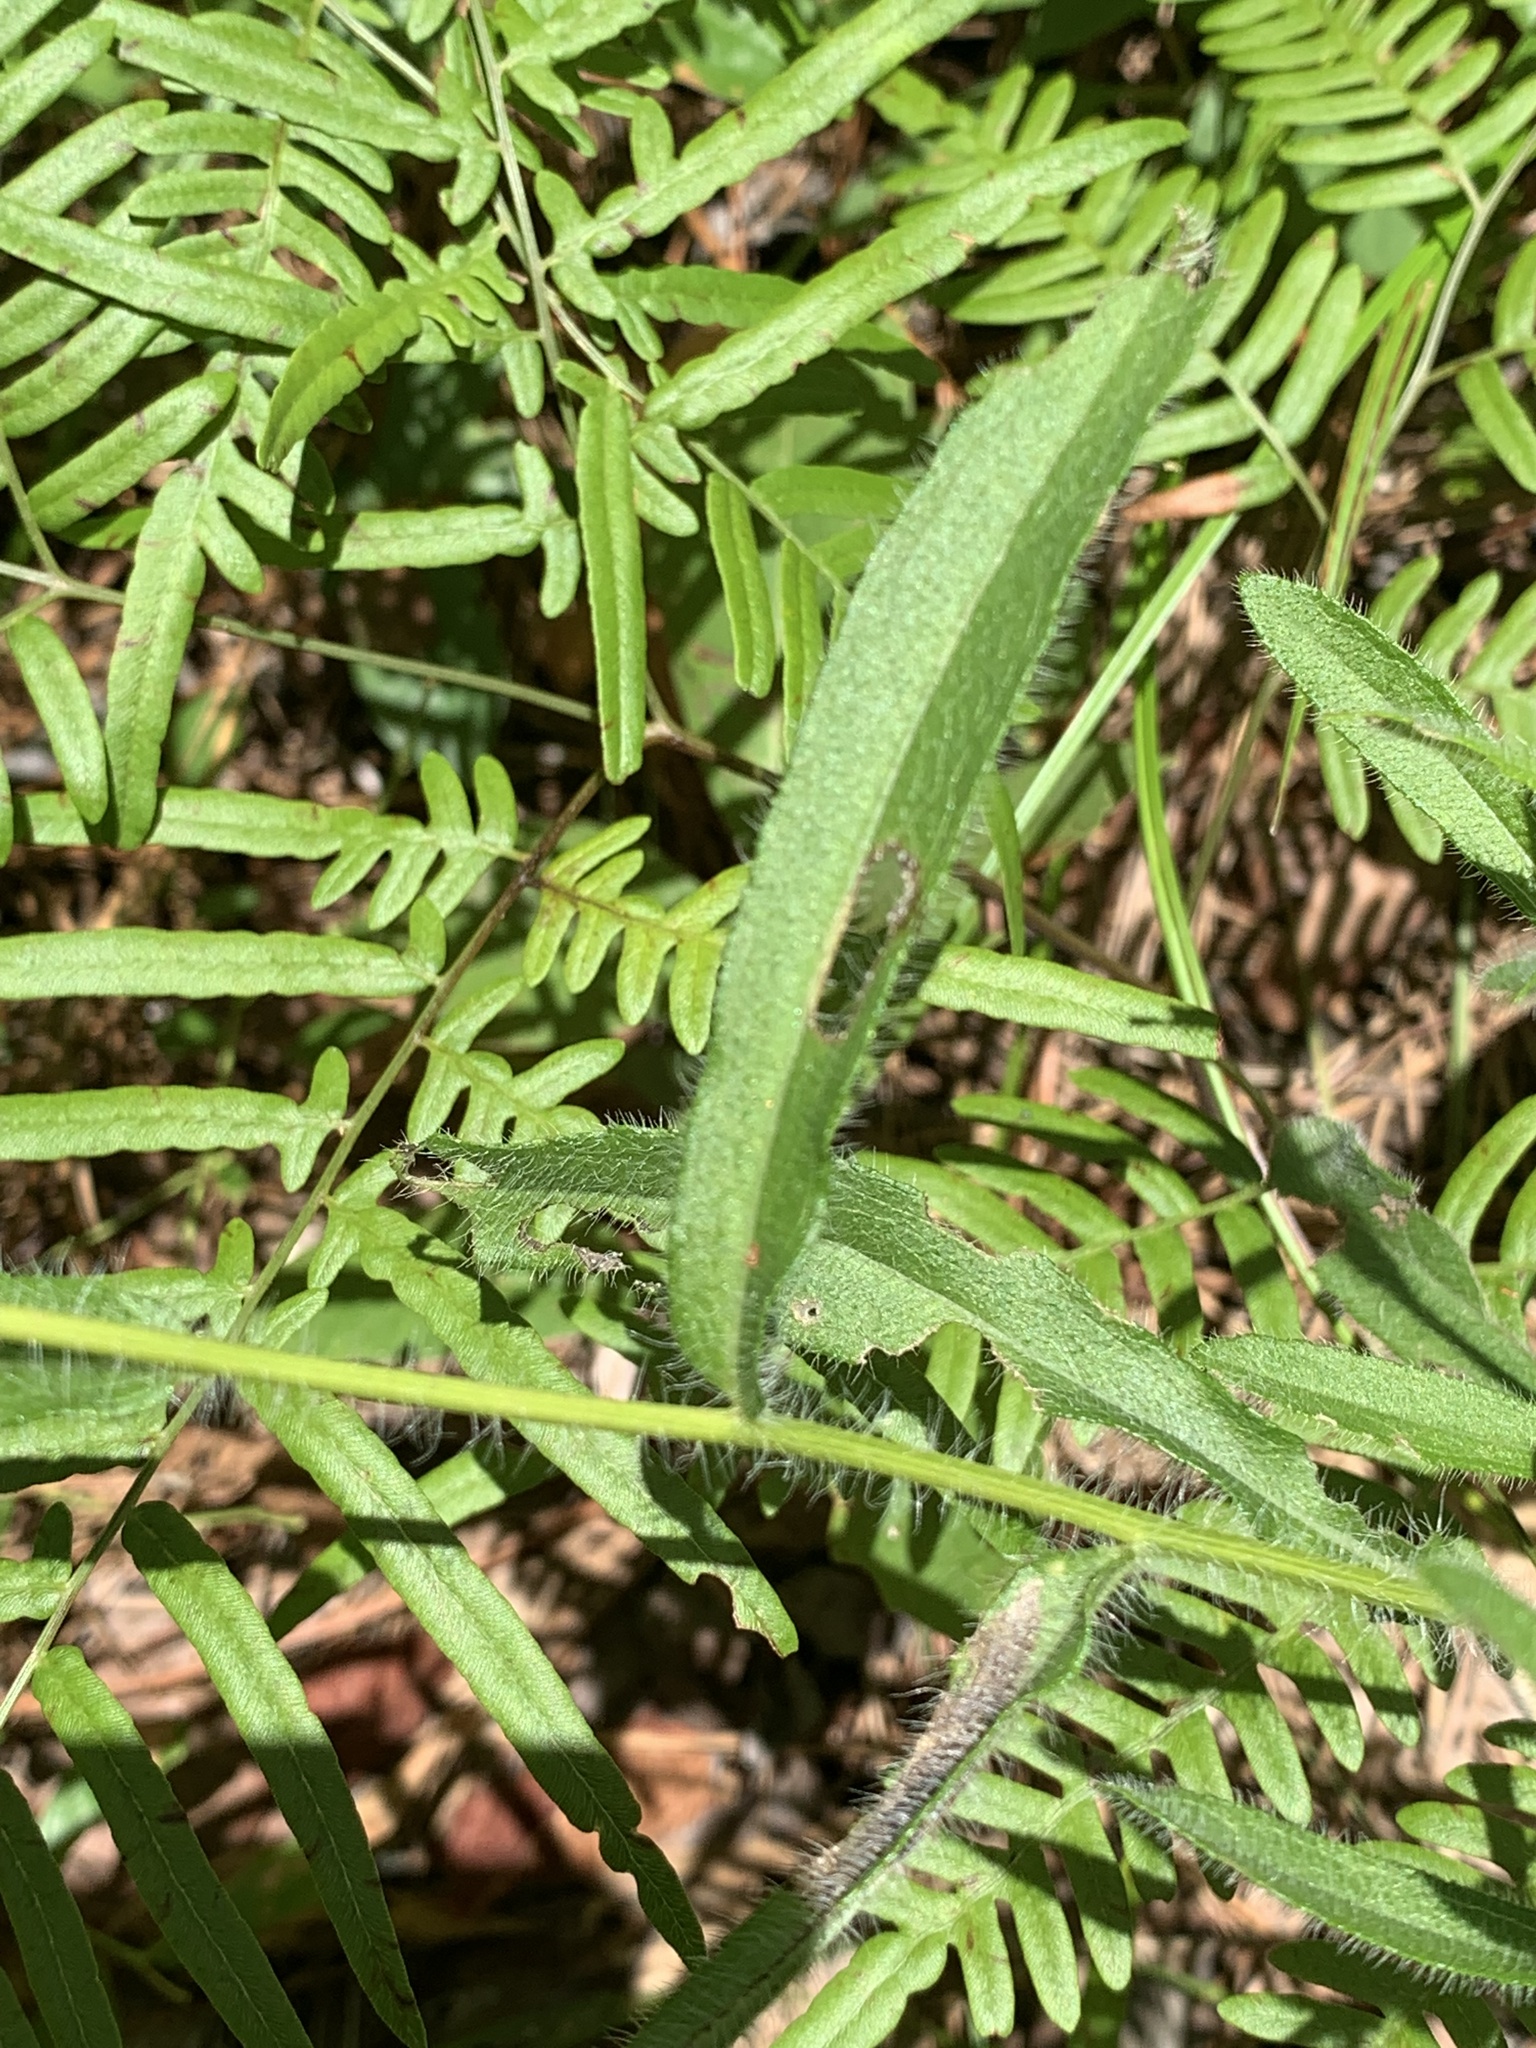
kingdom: Plantae
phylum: Tracheophyta
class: Magnoliopsida
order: Asterales
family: Asteraceae
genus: Rudbeckia
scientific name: Rudbeckia hirta
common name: Black-eyed-susan
